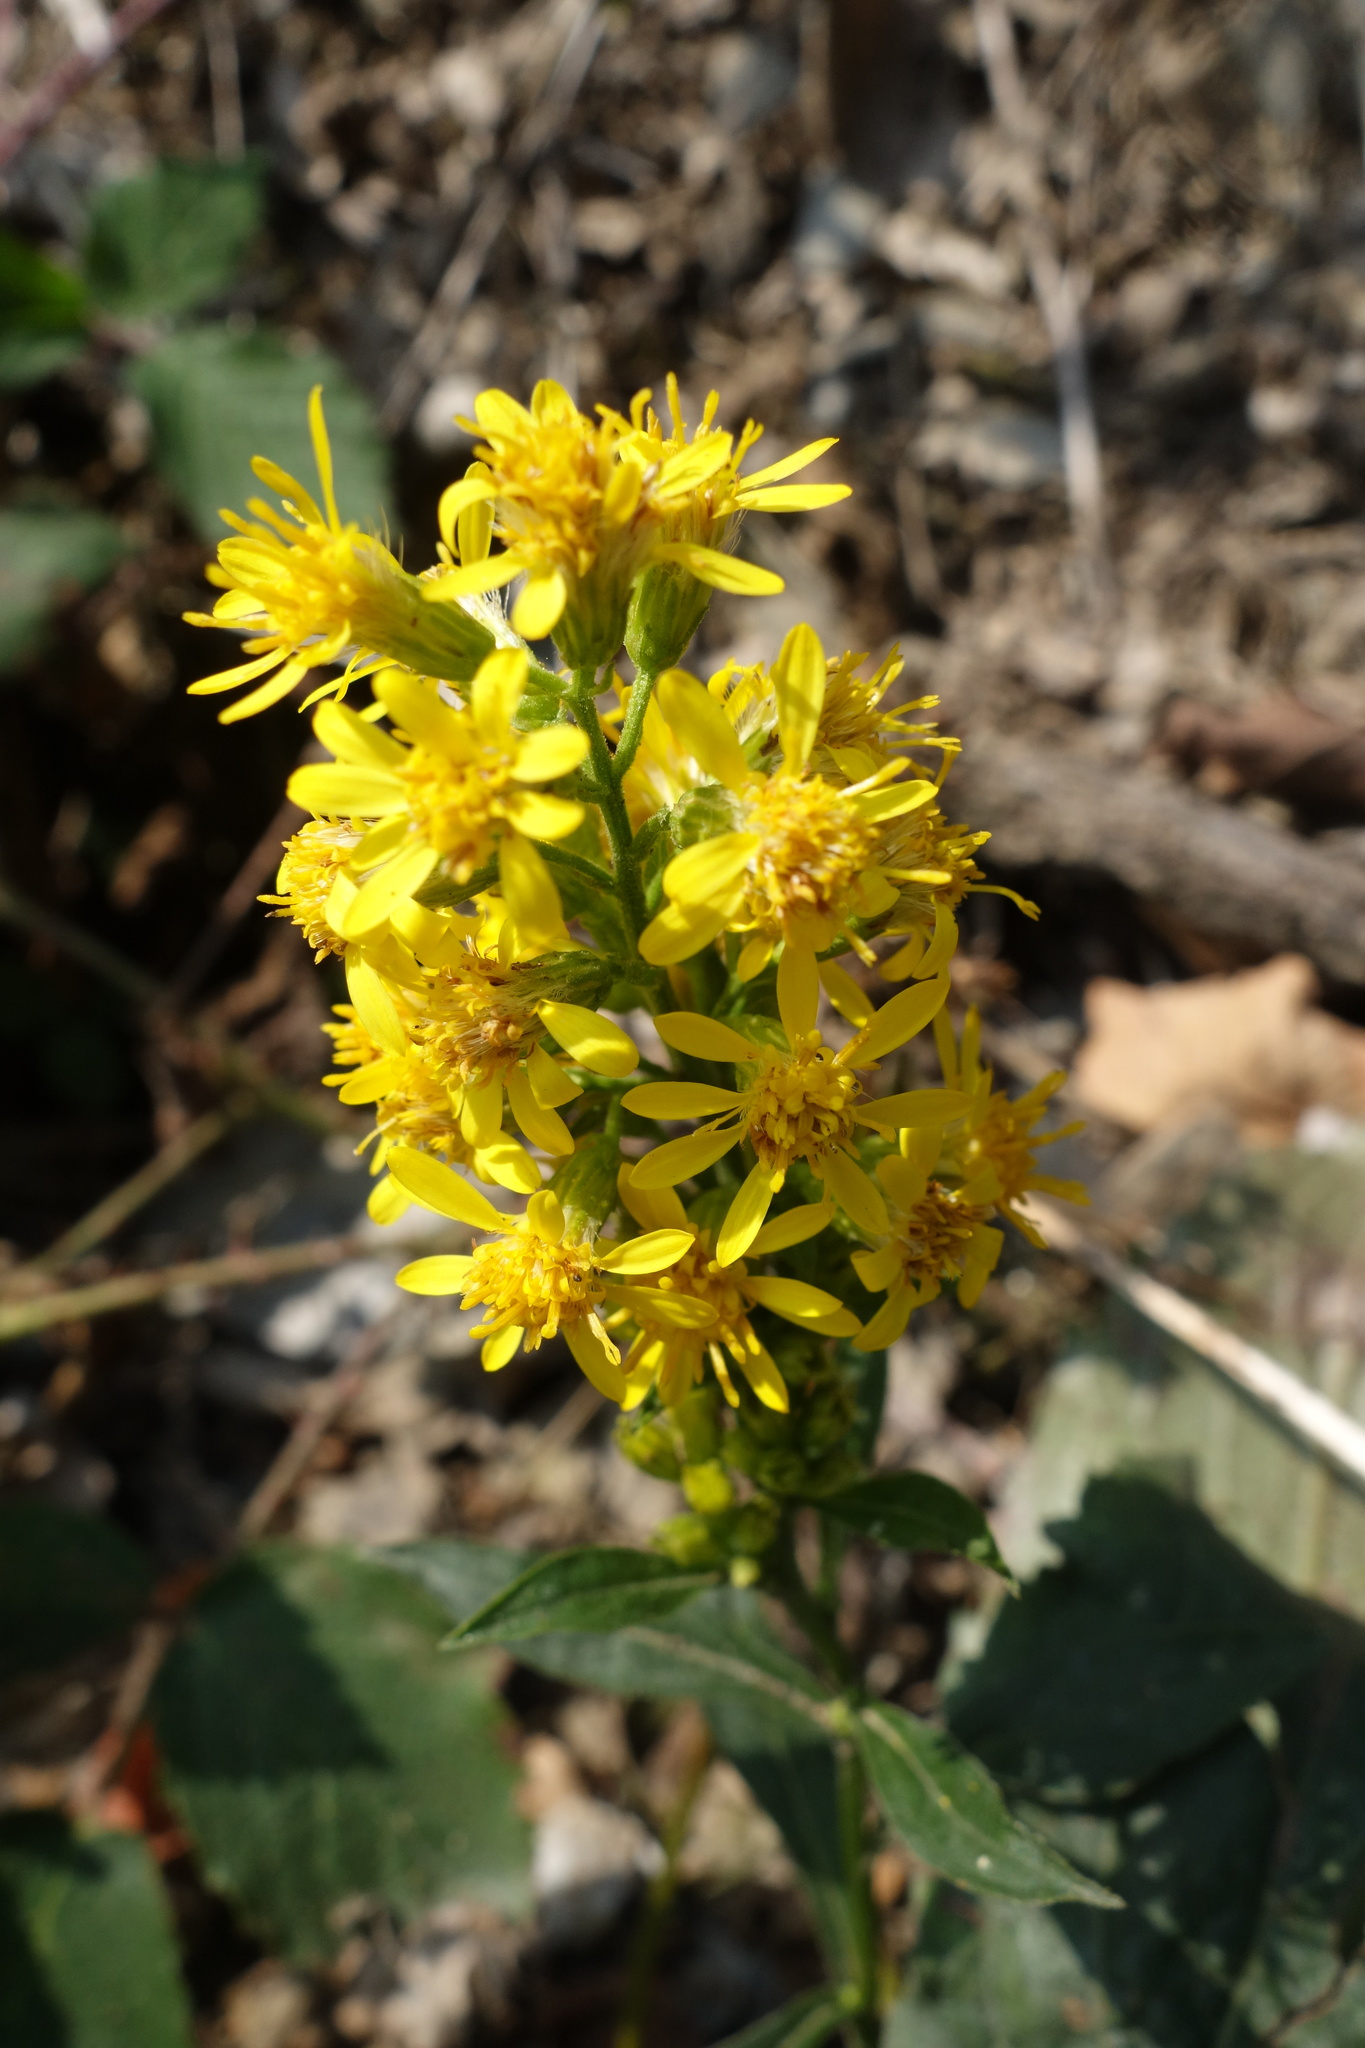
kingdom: Plantae
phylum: Tracheophyta
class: Magnoliopsida
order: Asterales
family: Asteraceae
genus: Solidago
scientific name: Solidago virgaurea
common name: Goldenrod
